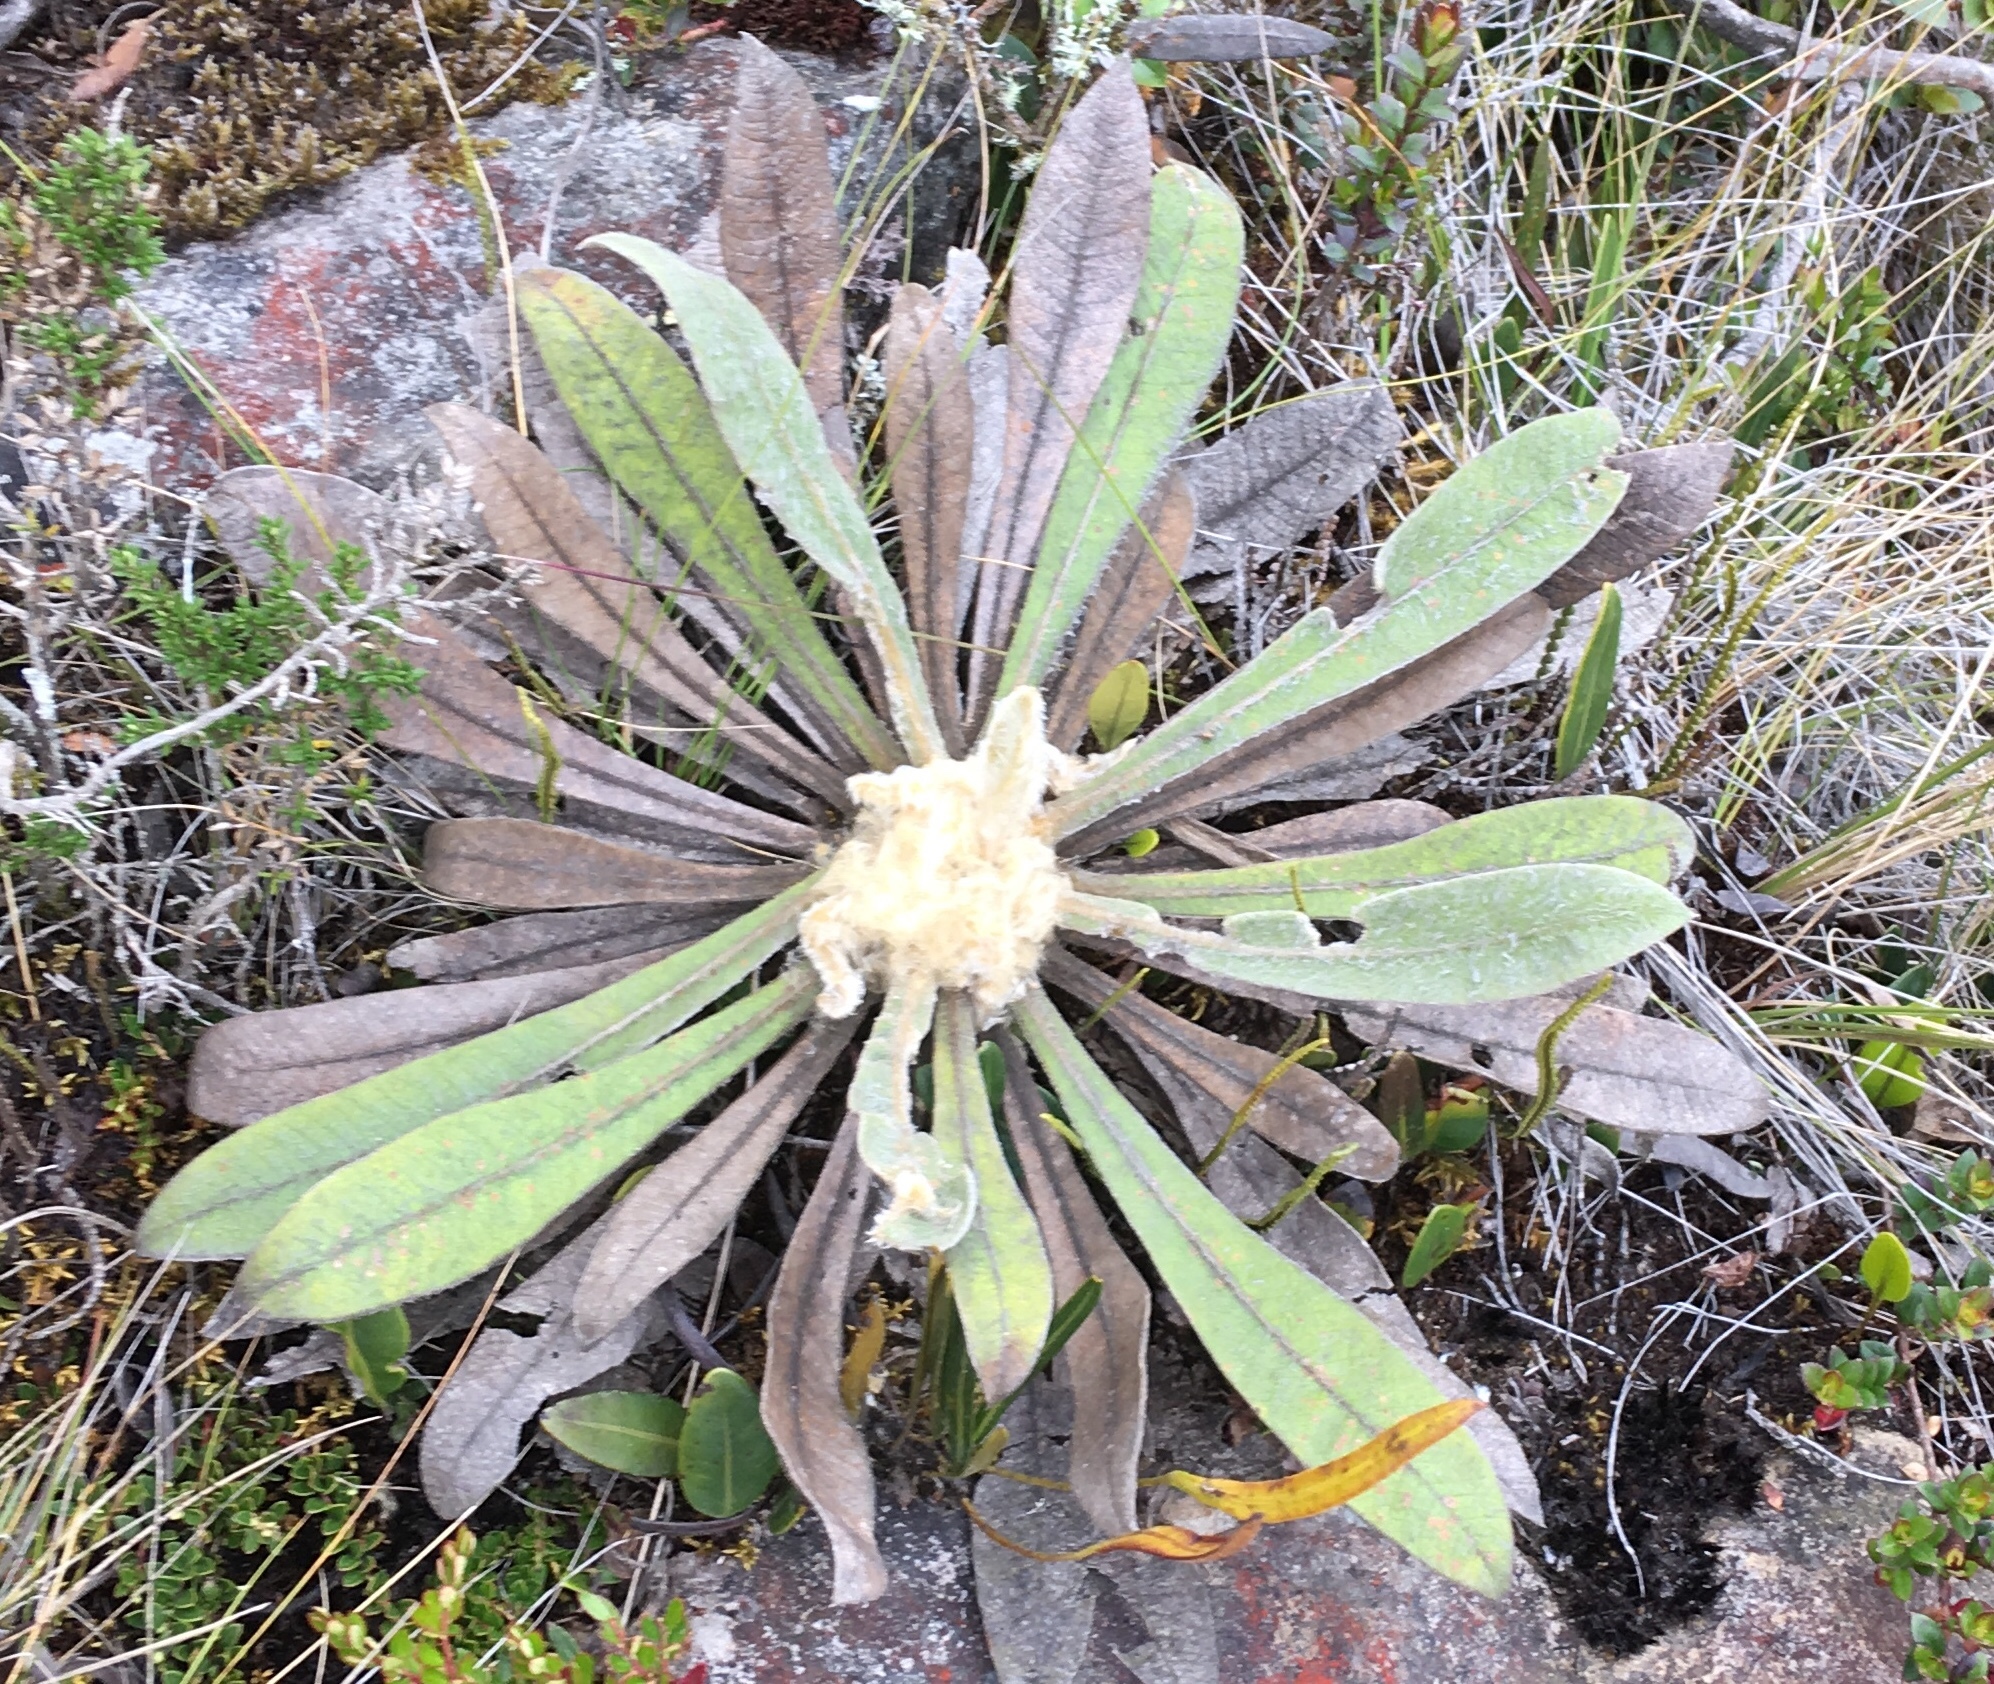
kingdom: Plantae
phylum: Tracheophyta
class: Magnoliopsida
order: Asterales
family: Asteraceae
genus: Espeletia
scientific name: Espeletia corymbosa
